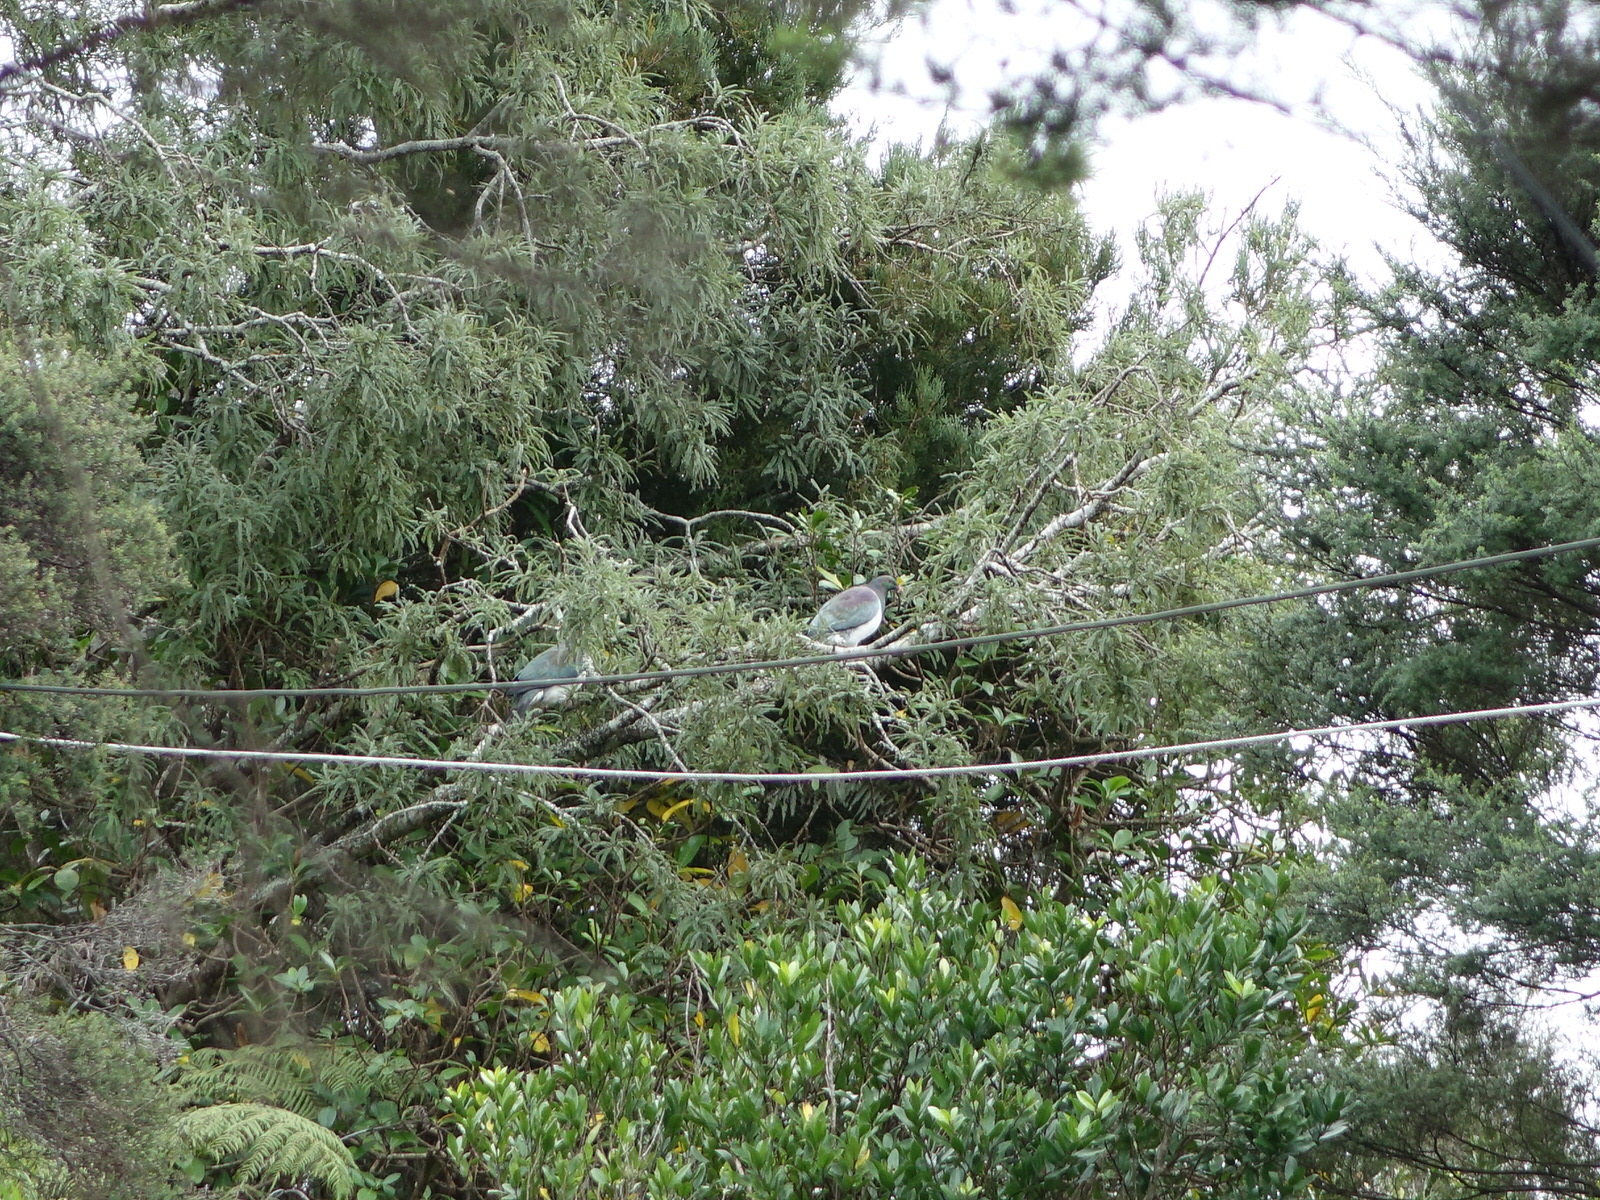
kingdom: Animalia
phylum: Chordata
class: Aves
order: Columbiformes
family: Columbidae
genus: Hemiphaga
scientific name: Hemiphaga novaeseelandiae
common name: New zealand pigeon
